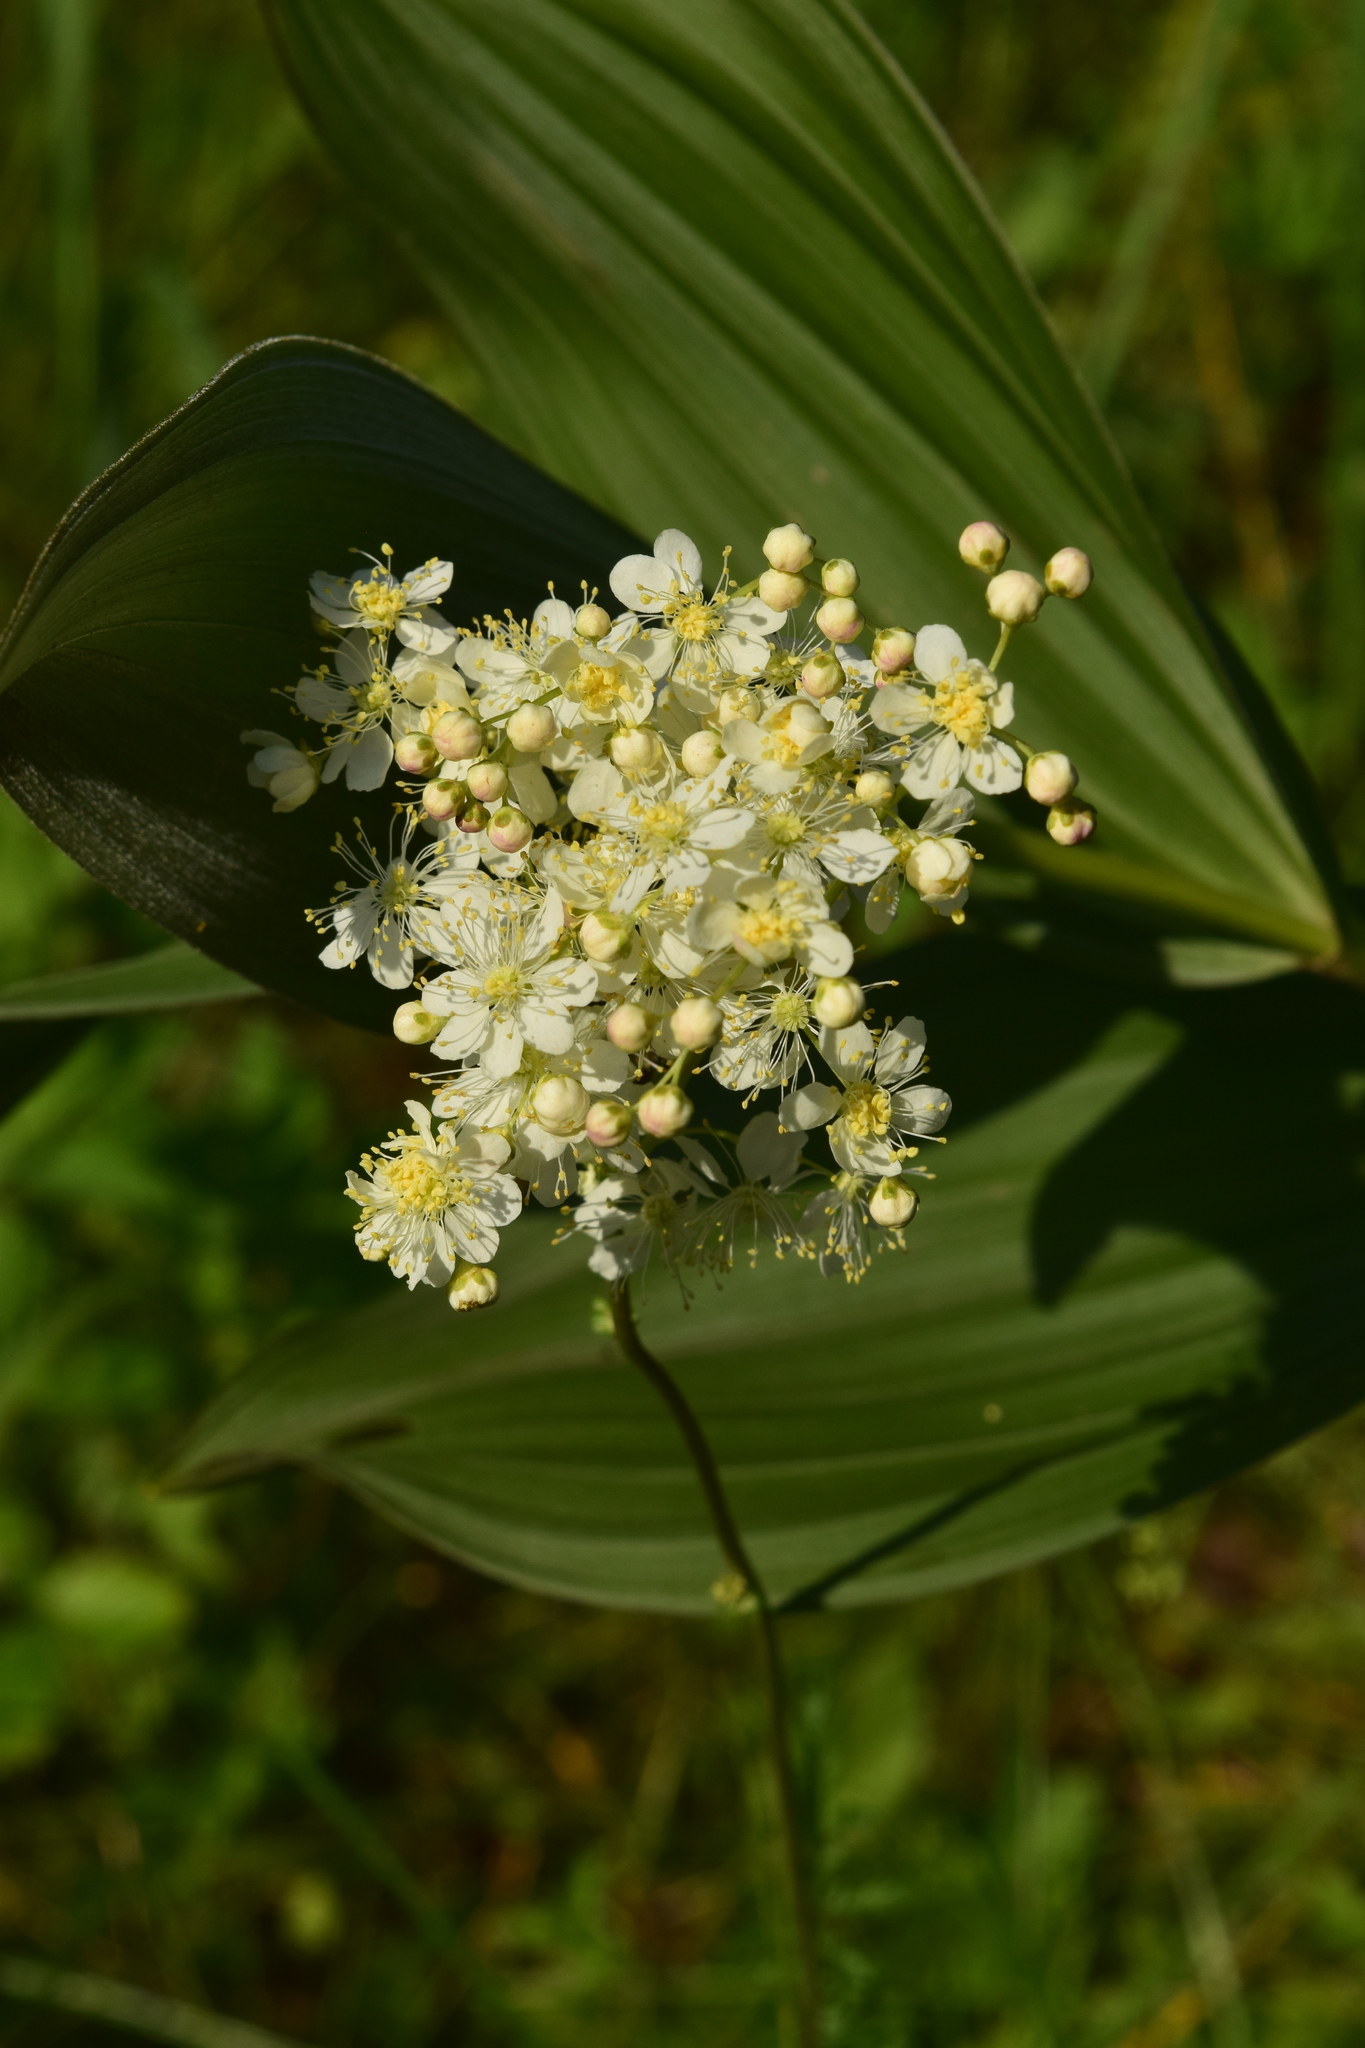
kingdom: Plantae
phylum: Tracheophyta
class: Magnoliopsida
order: Rosales
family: Rosaceae
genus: Filipendula
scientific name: Filipendula vulgaris
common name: Dropwort
